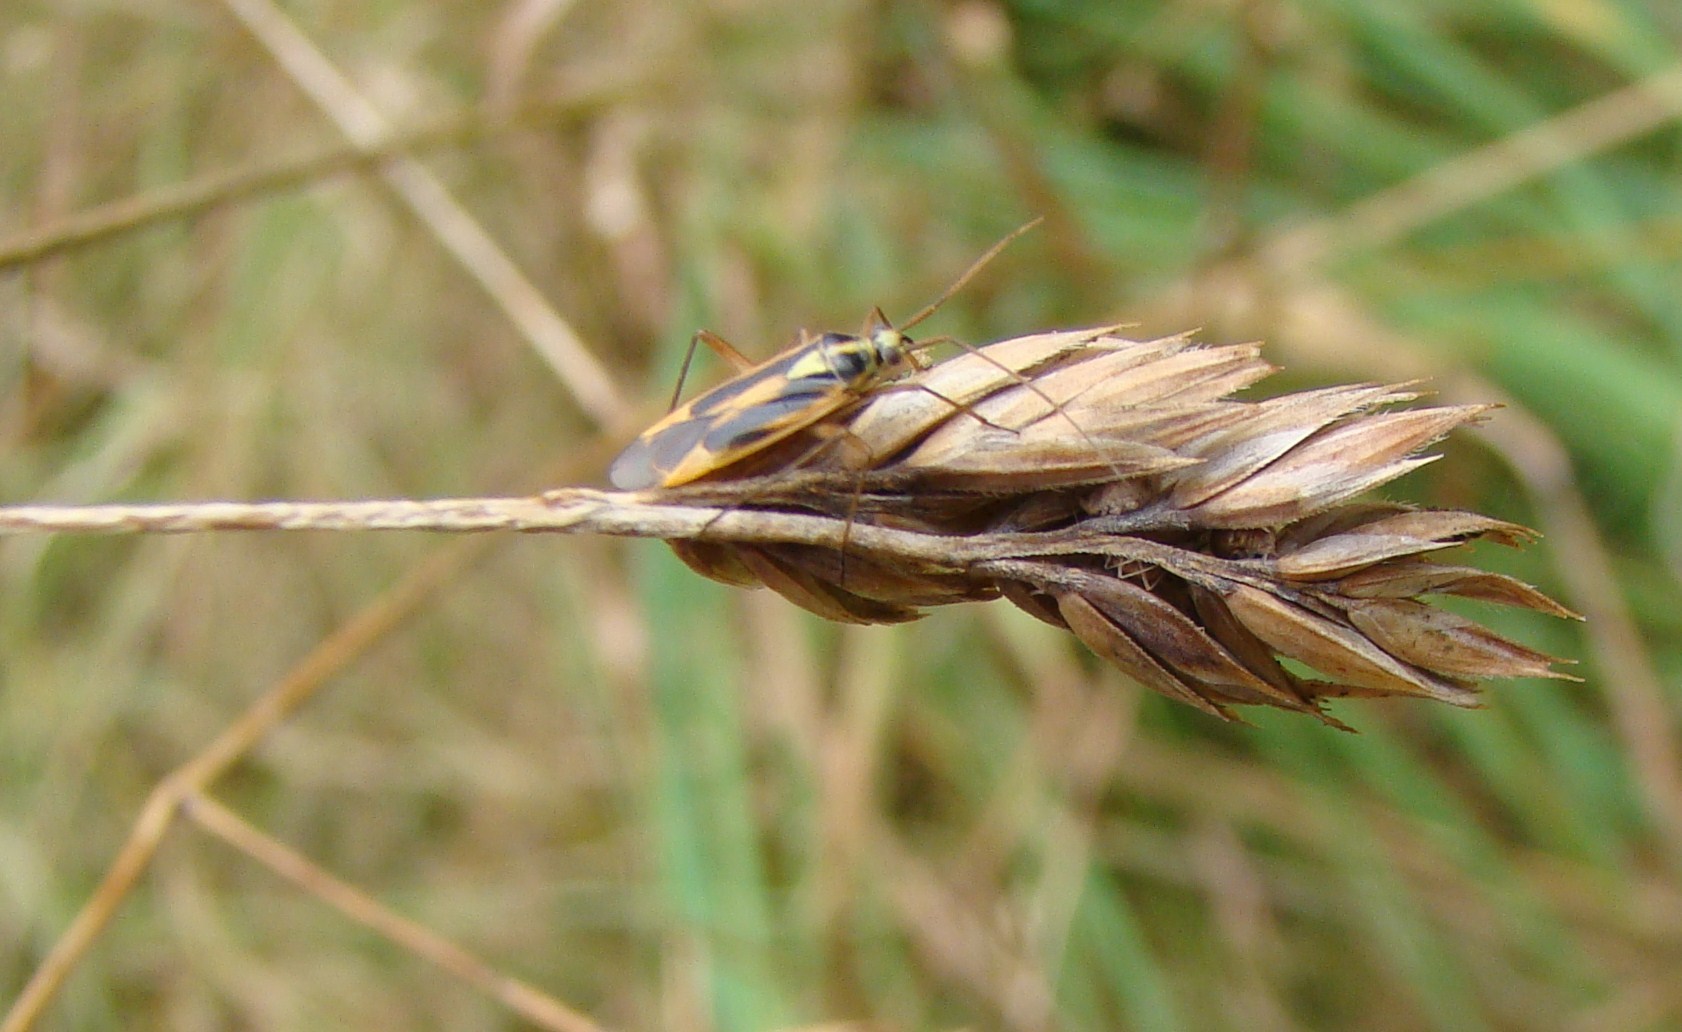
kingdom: Animalia
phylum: Arthropoda
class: Insecta
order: Hemiptera
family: Miridae
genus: Stenotus
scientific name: Stenotus binotatus
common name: Plant bug
